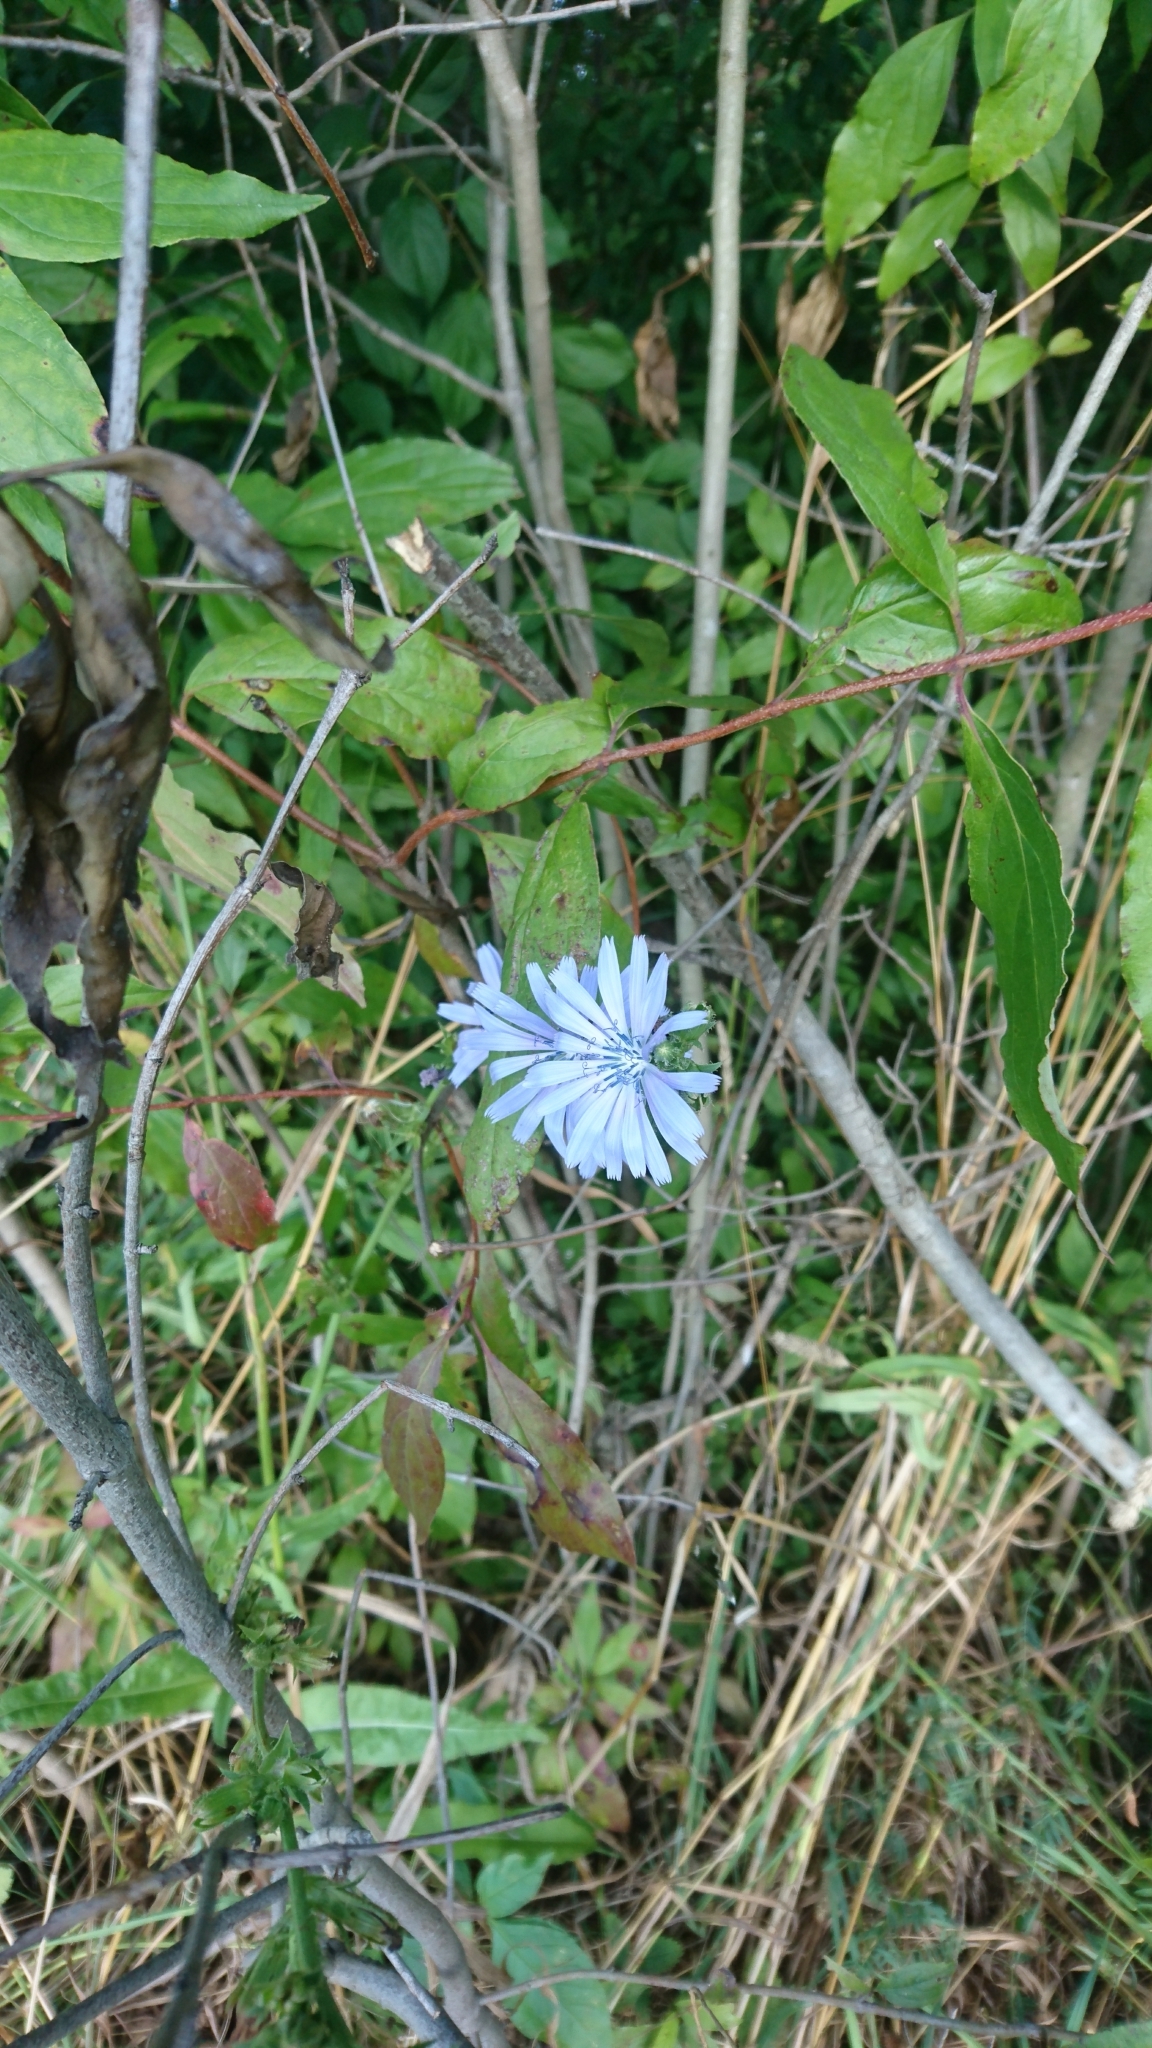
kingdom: Plantae
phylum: Tracheophyta
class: Magnoliopsida
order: Asterales
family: Asteraceae
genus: Cichorium
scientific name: Cichorium intybus
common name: Chicory
